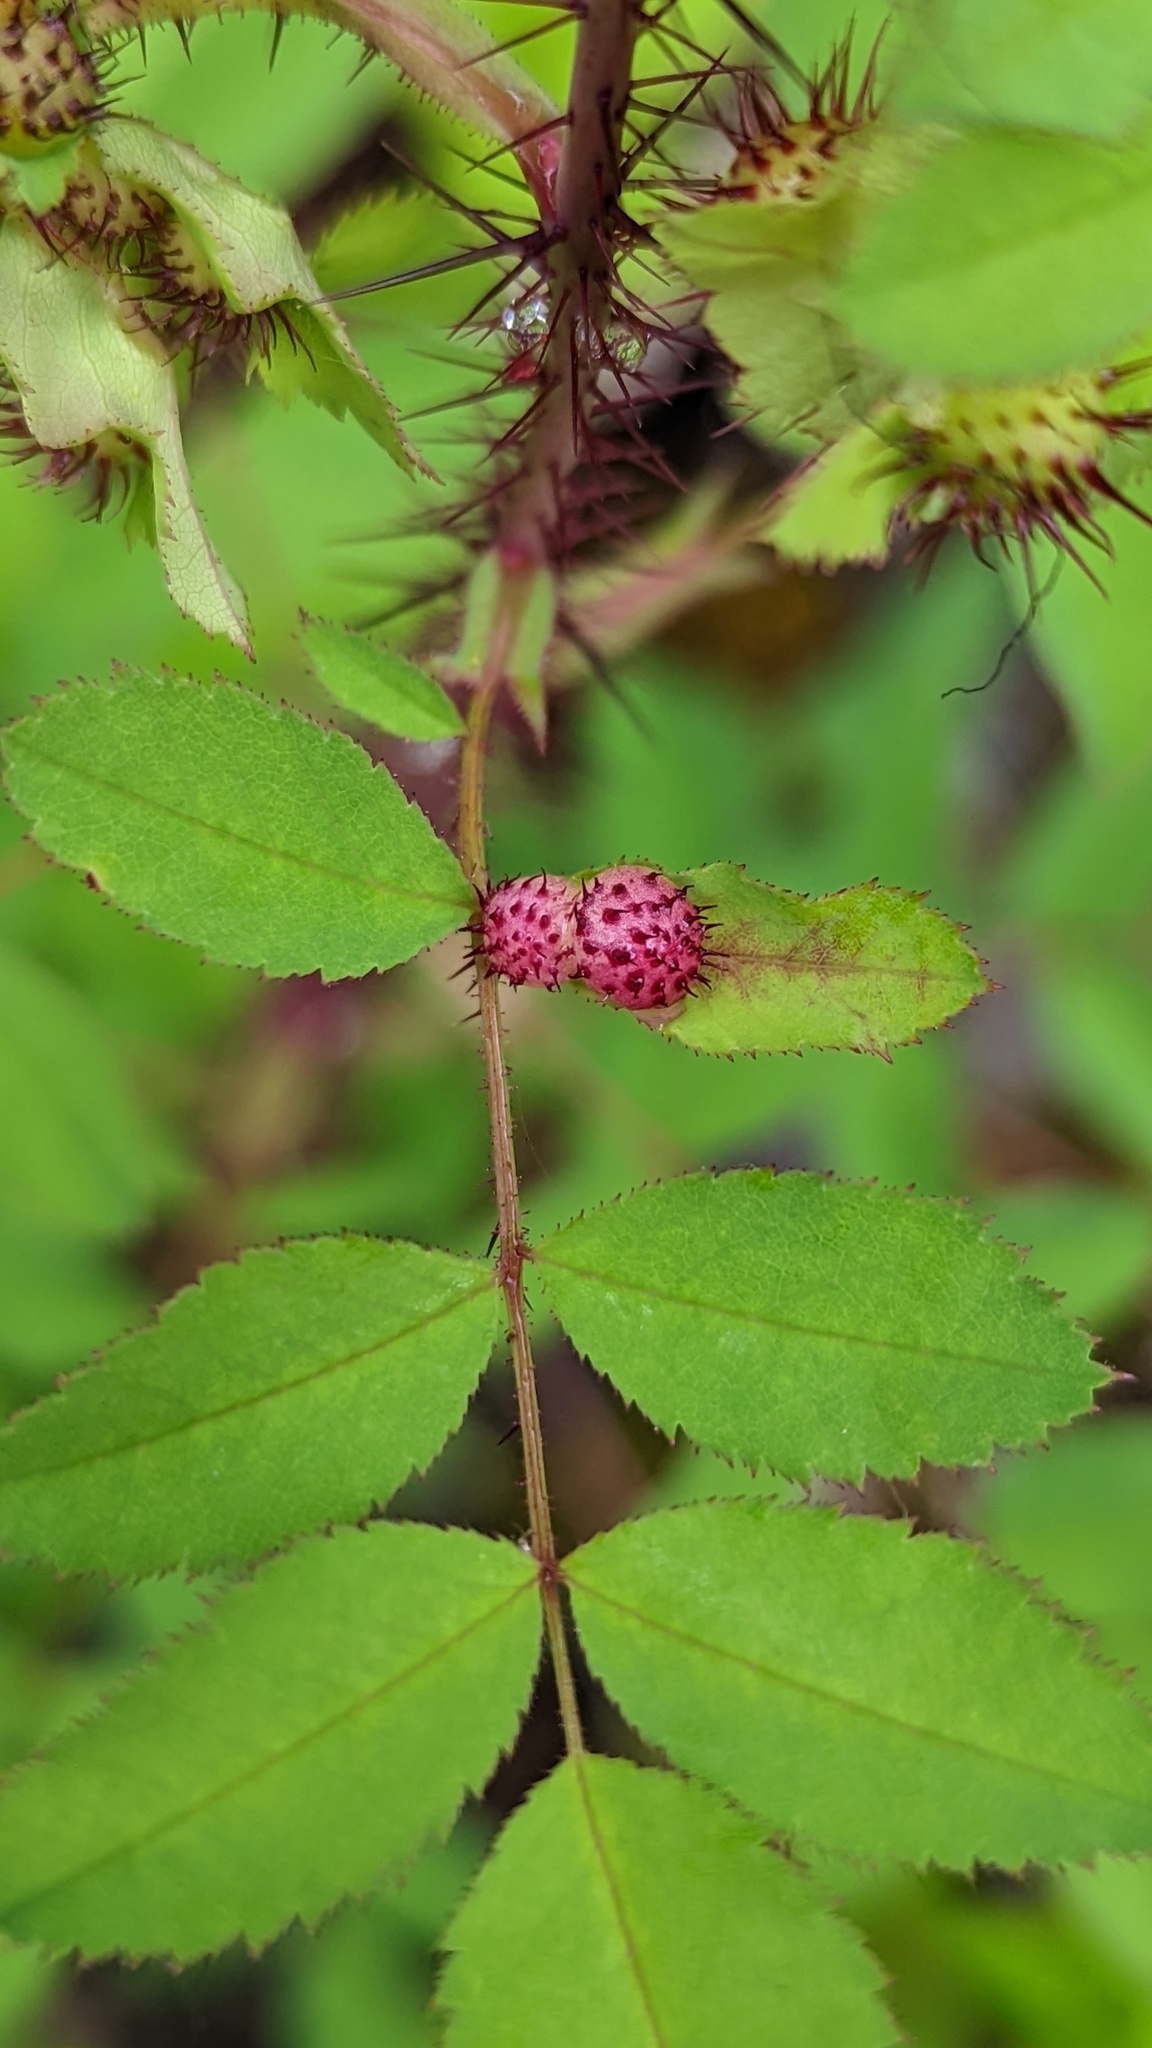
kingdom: Animalia
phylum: Arthropoda
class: Insecta
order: Hymenoptera
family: Cynipidae
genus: Diplolepis
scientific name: Diplolepis polita
